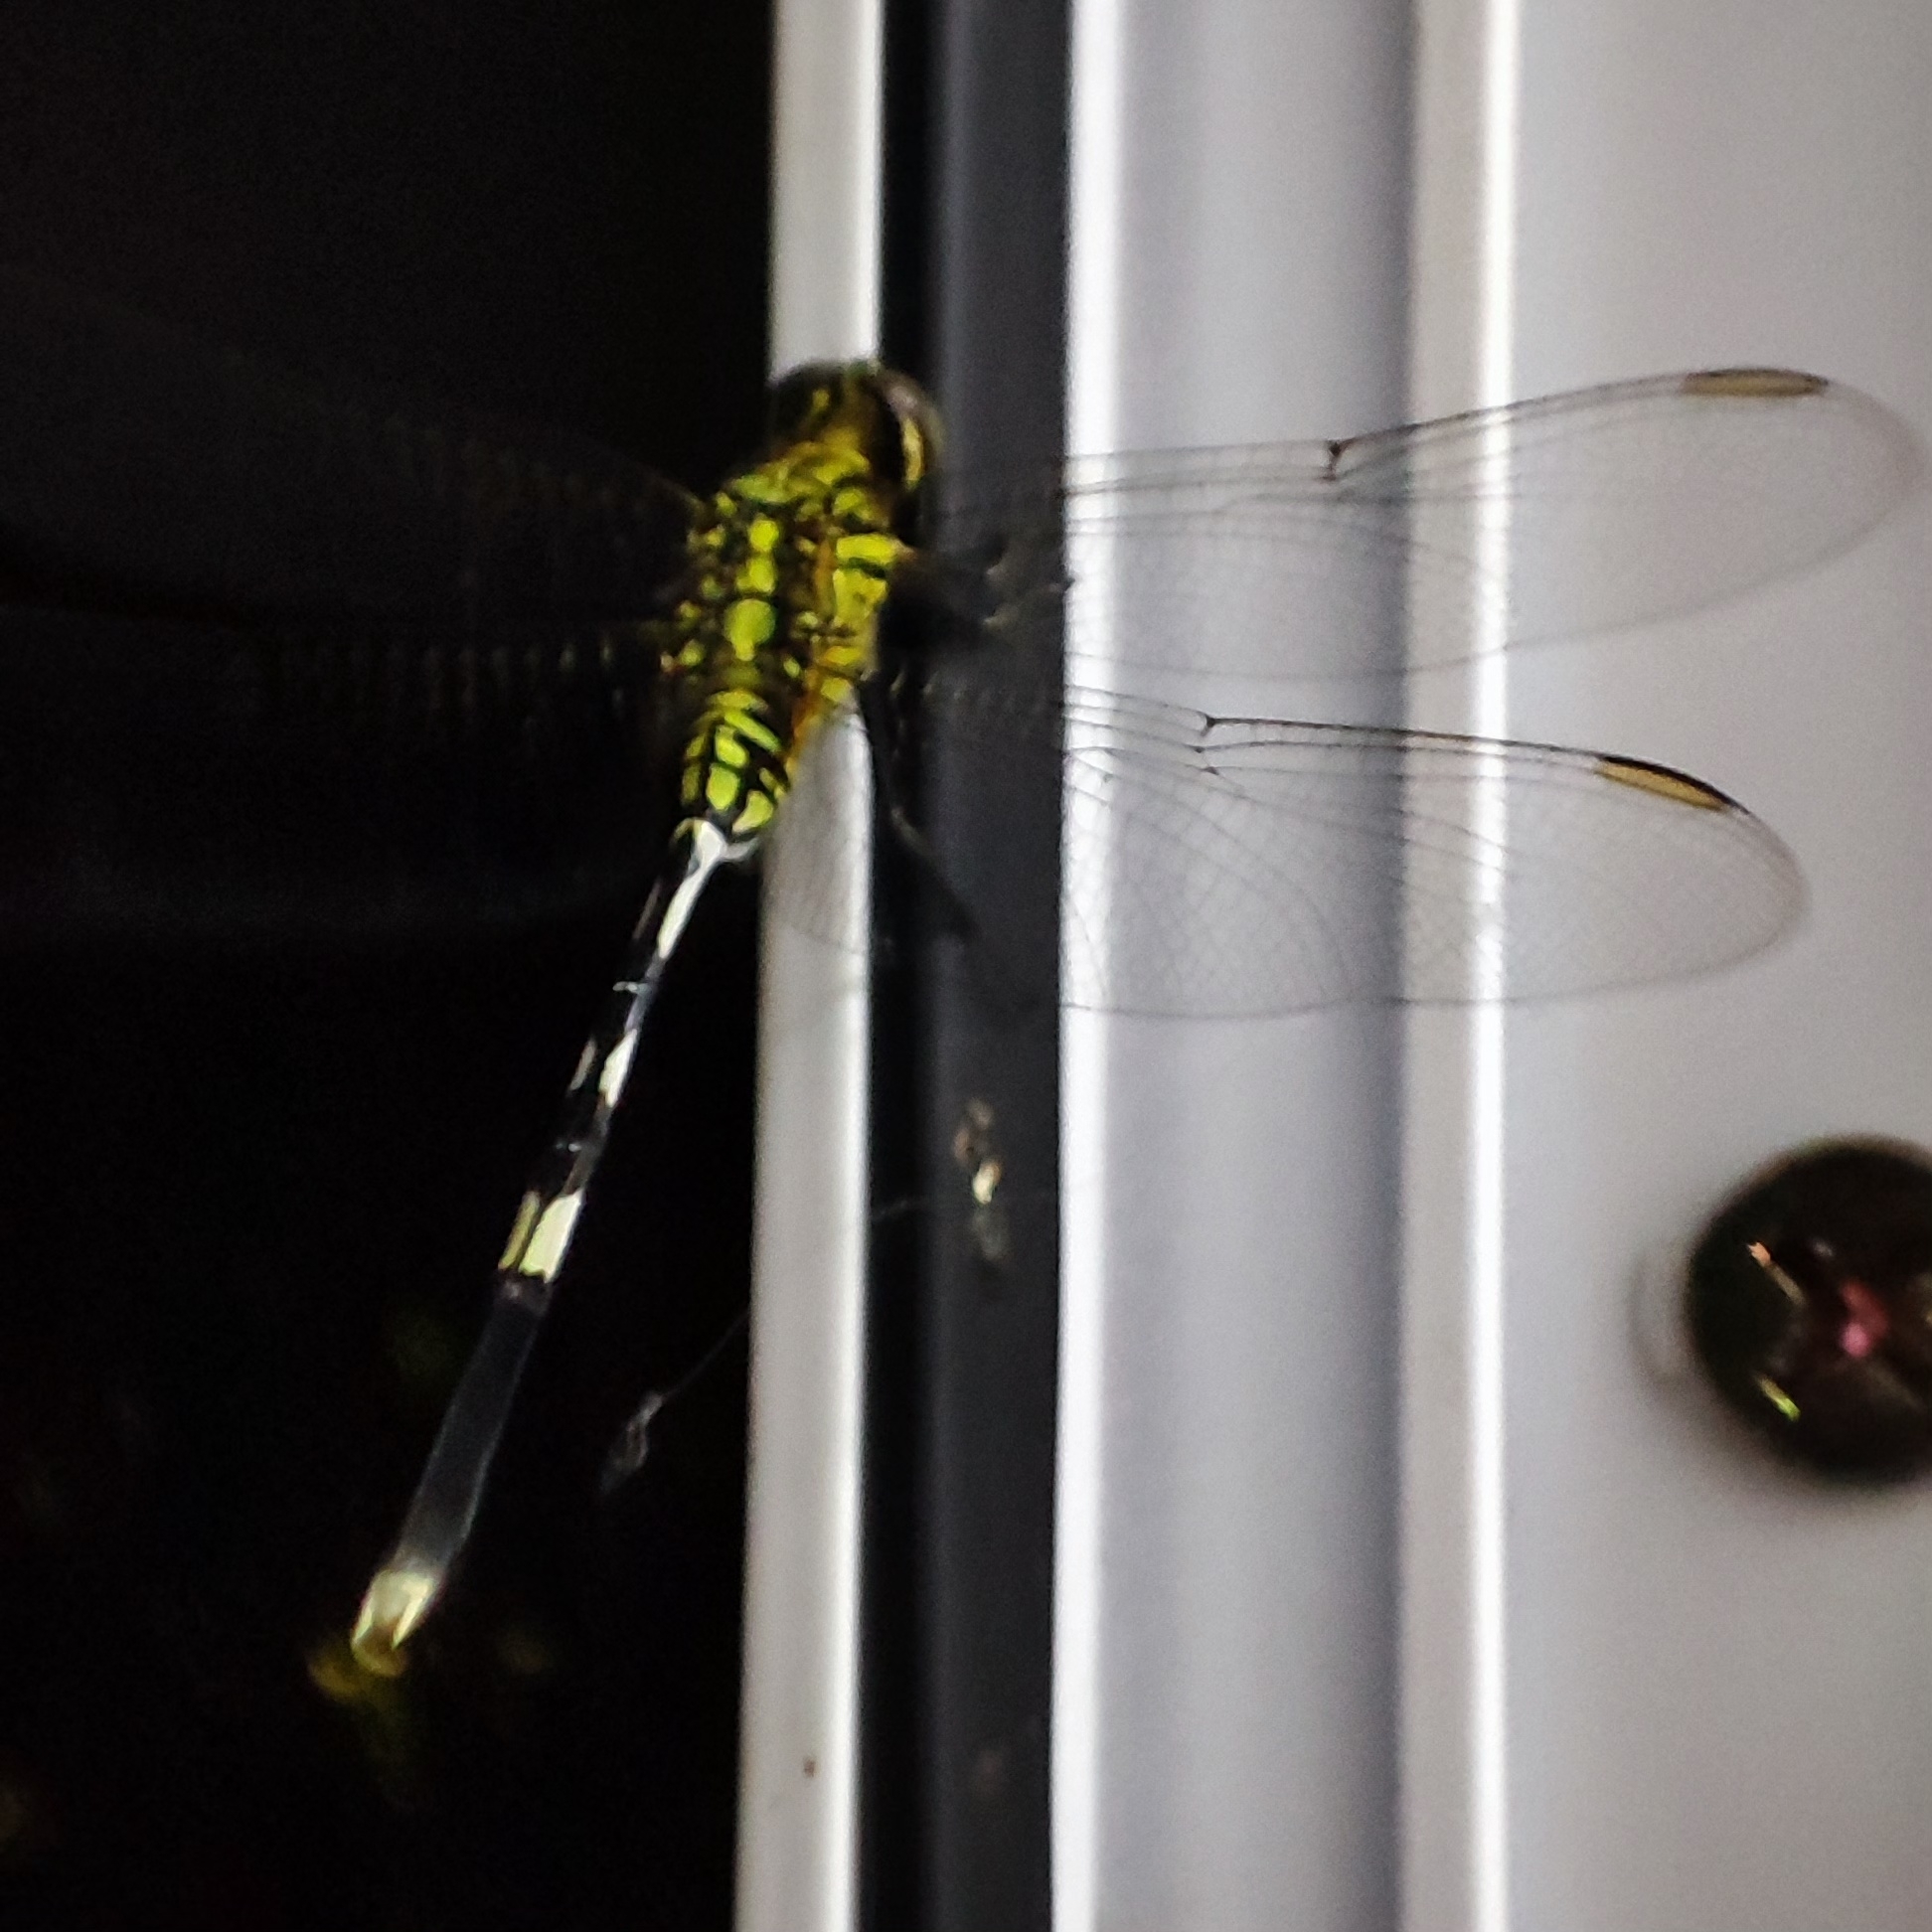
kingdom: Animalia
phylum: Arthropoda
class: Insecta
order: Odonata
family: Libellulidae
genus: Orthetrum
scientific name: Orthetrum sabina
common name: Slender skimmer
